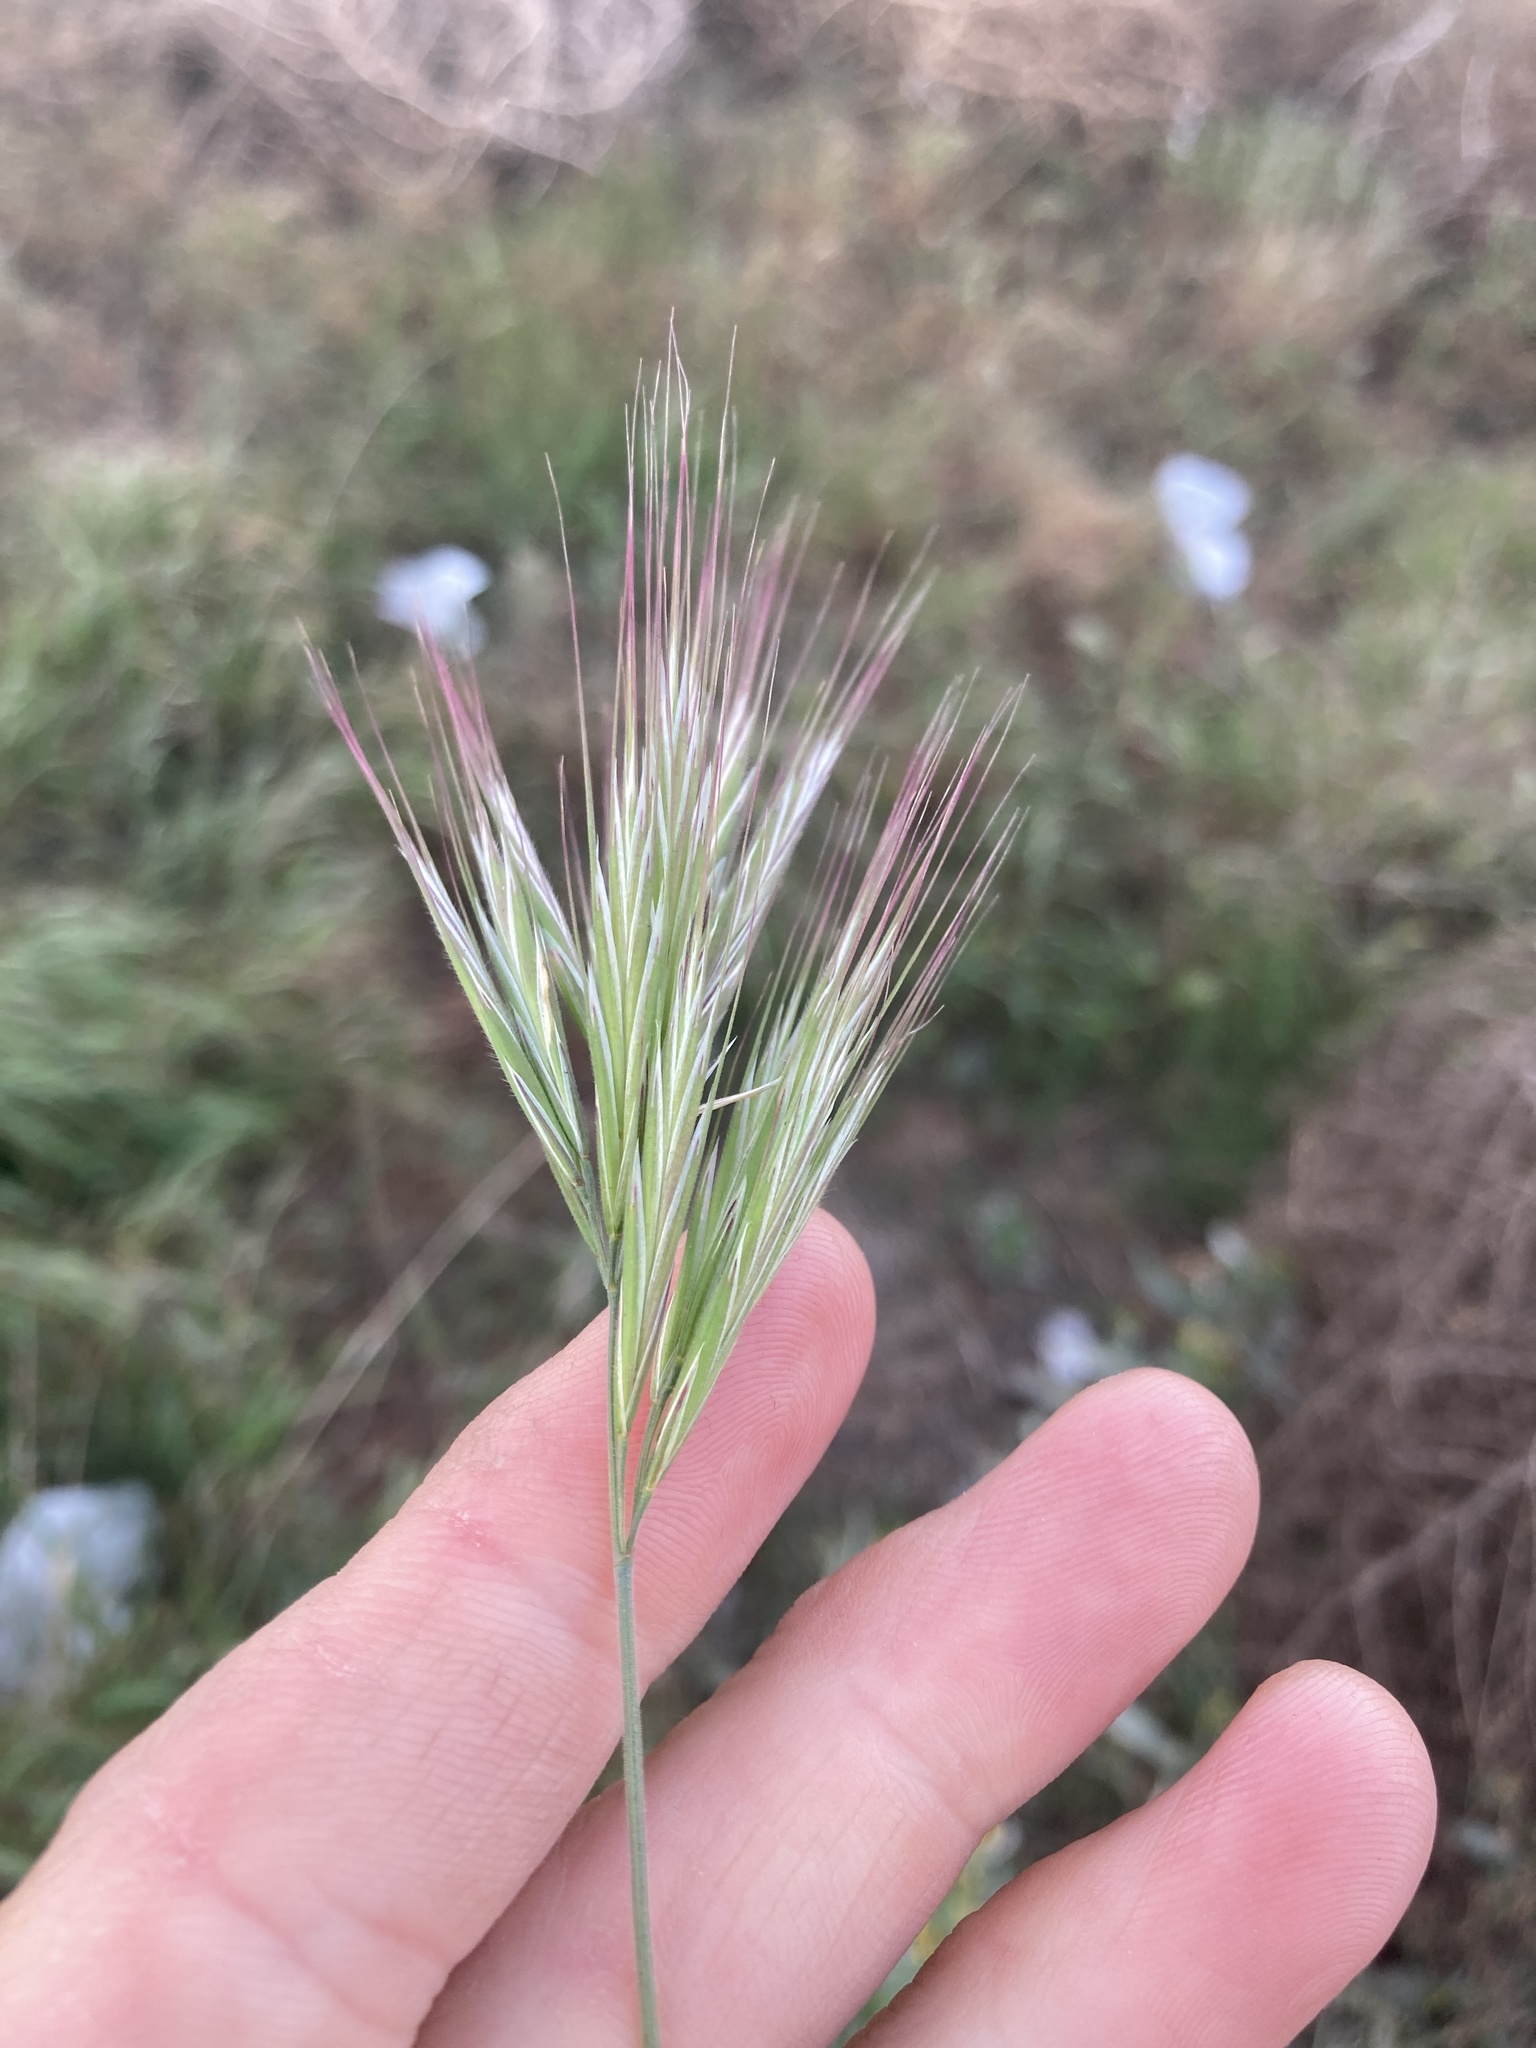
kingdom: Plantae
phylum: Tracheophyta
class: Liliopsida
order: Poales
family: Poaceae
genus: Bromus
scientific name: Bromus rubens
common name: Red brome
